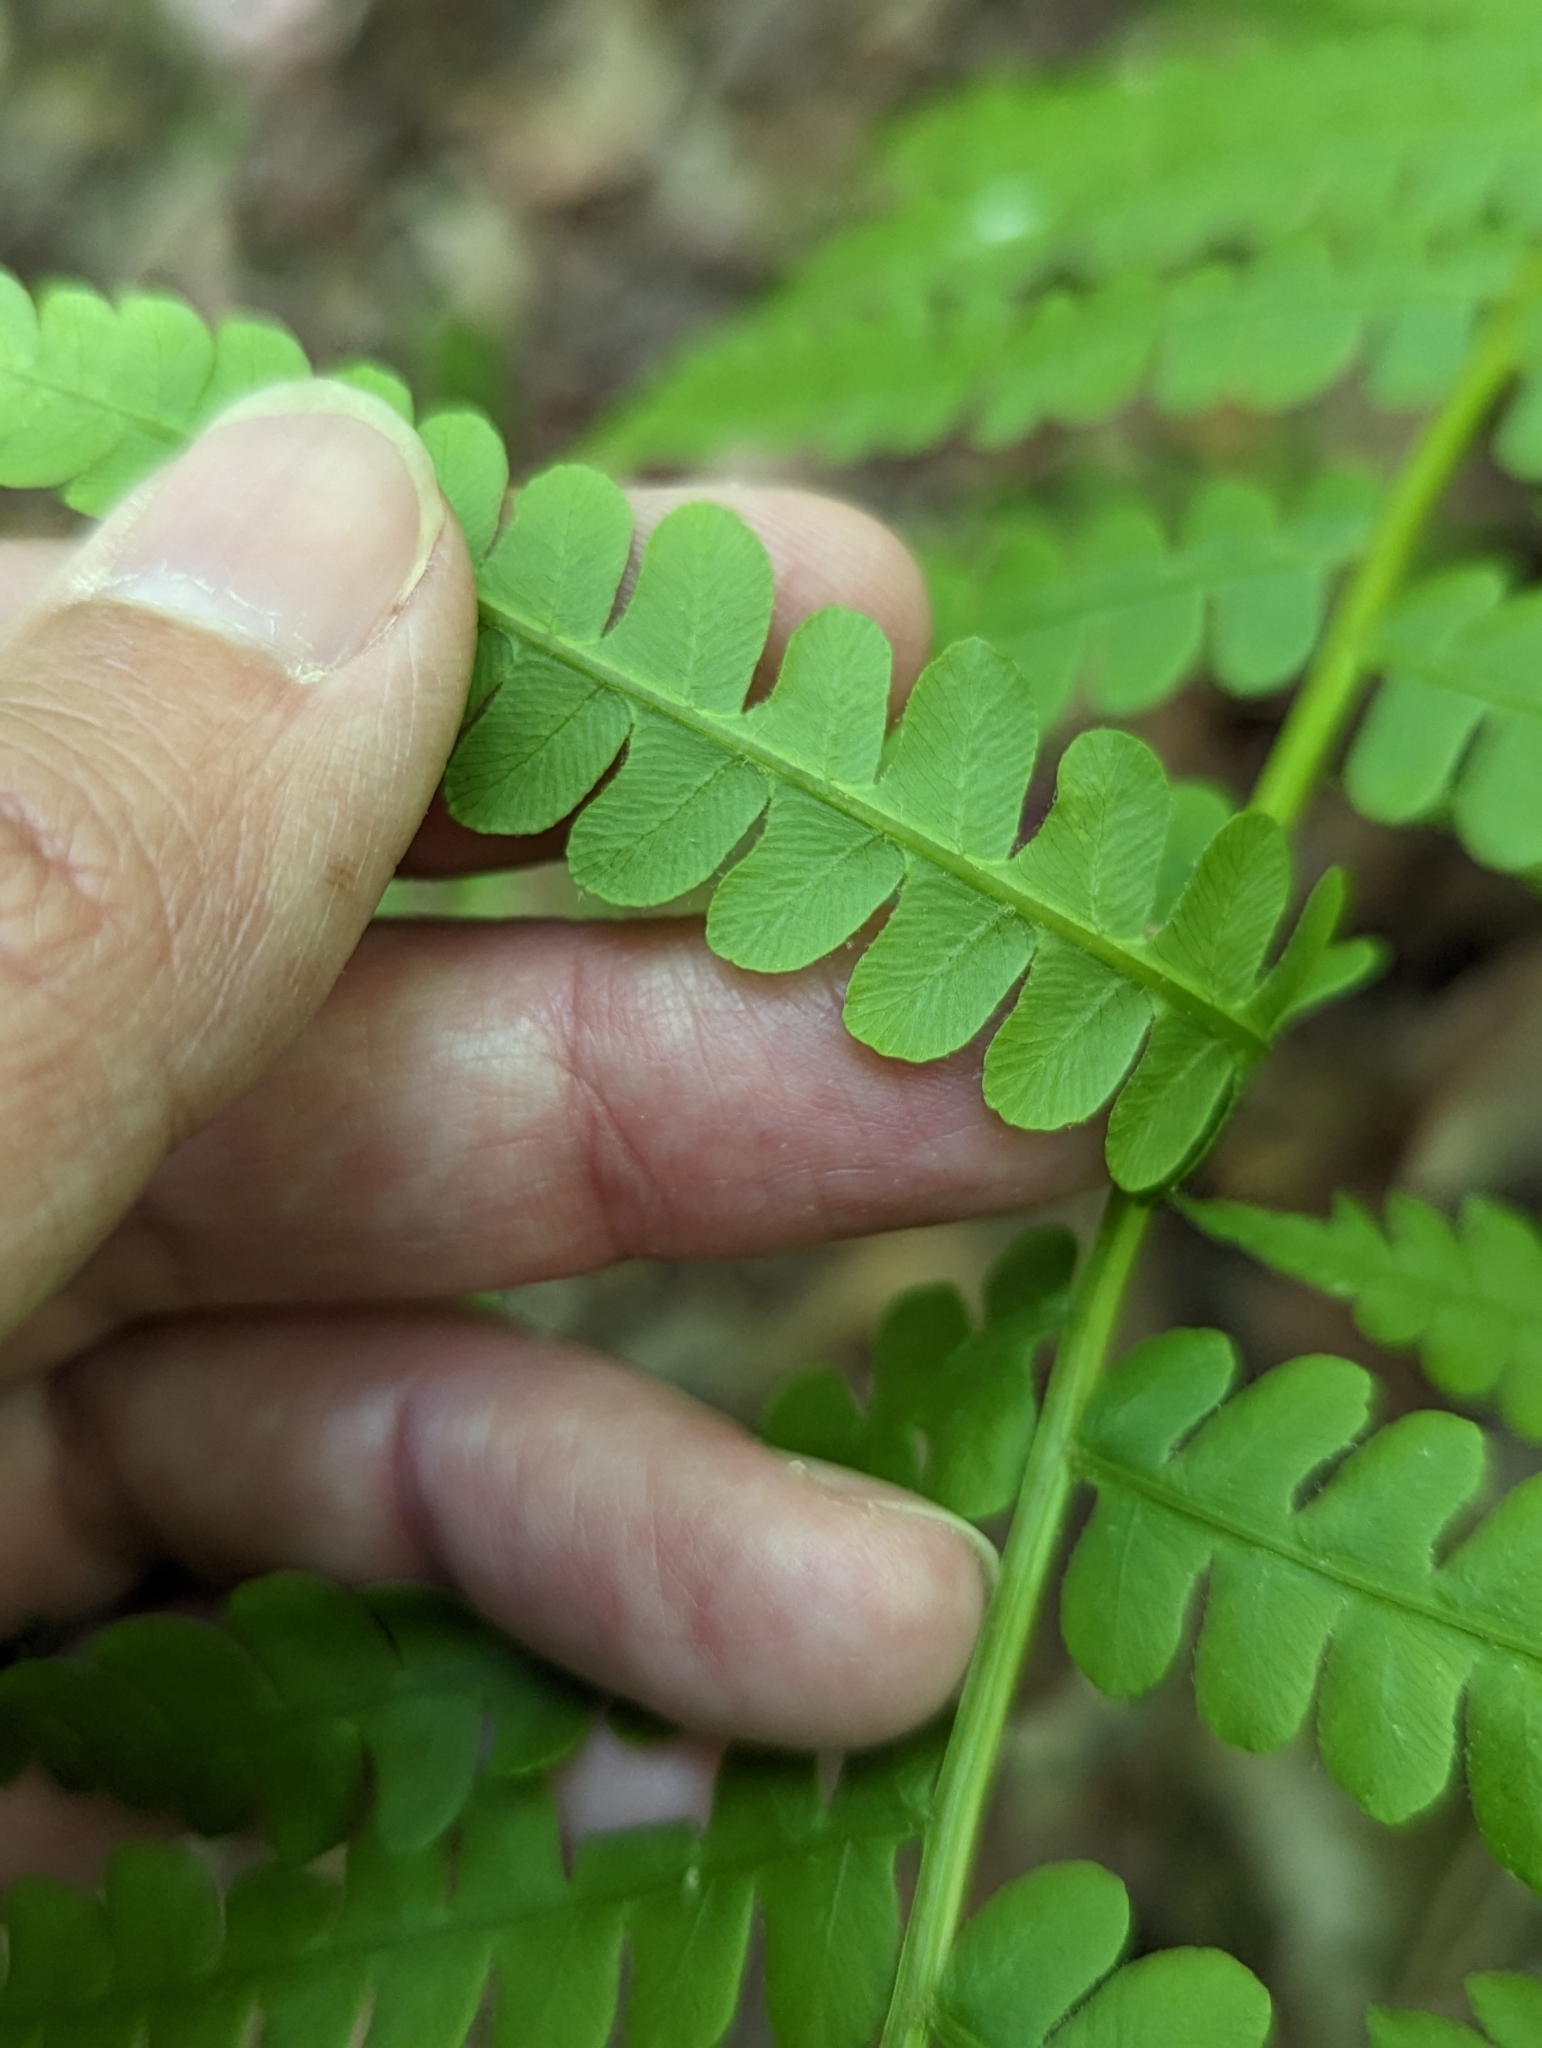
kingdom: Plantae
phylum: Tracheophyta
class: Polypodiopsida
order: Osmundales
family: Osmundaceae
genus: Osmundastrum
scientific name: Osmundastrum cinnamomeum
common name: Cinnamon fern
